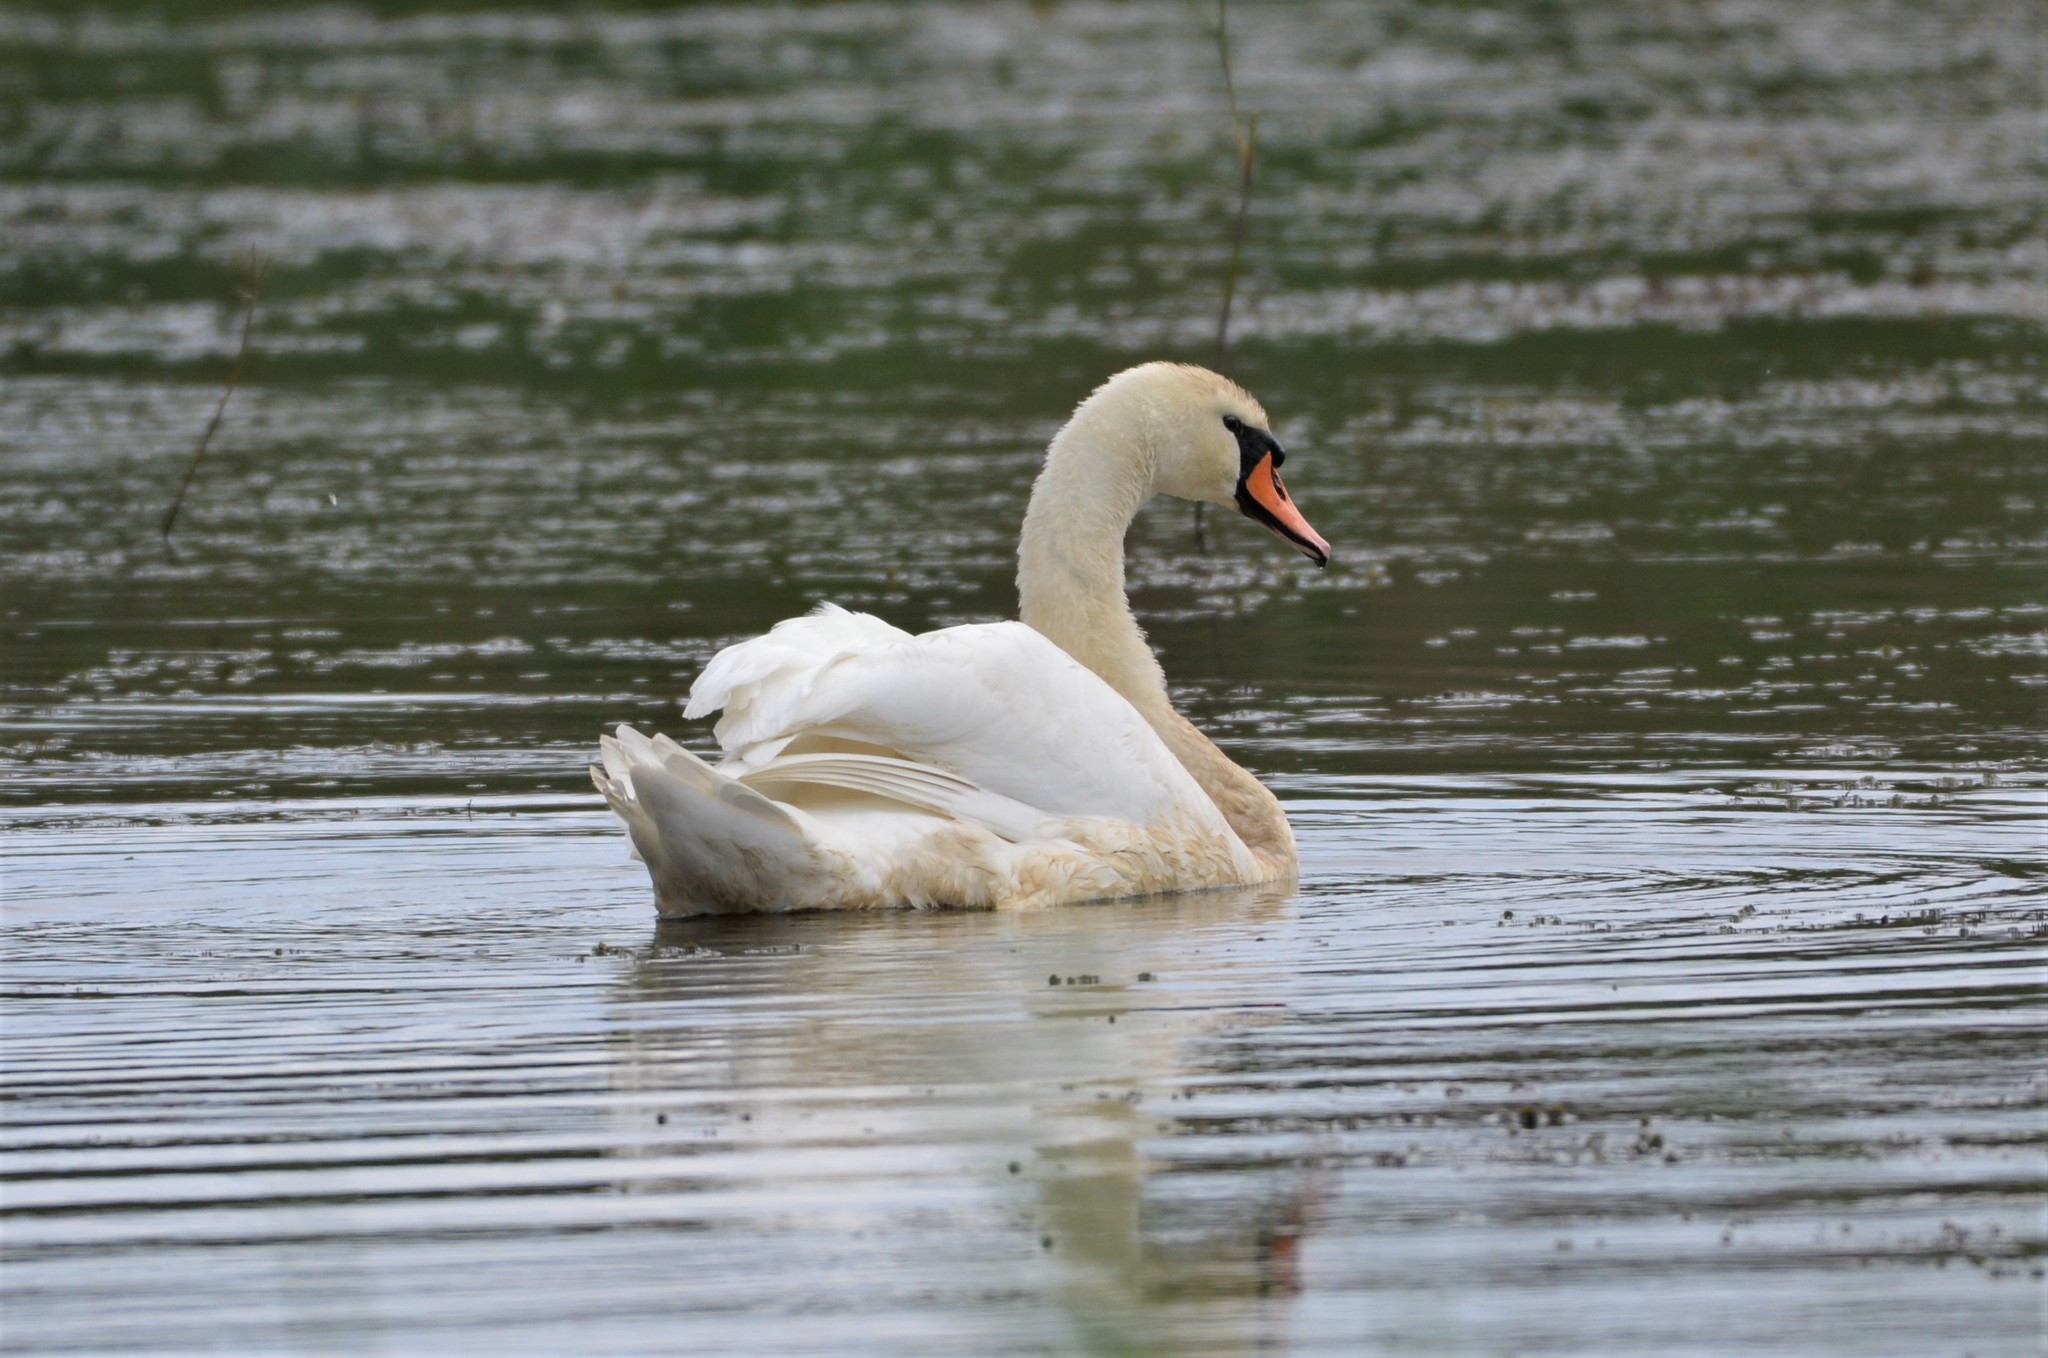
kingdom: Animalia
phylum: Chordata
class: Aves
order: Anseriformes
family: Anatidae
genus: Cygnus
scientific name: Cygnus olor
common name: Mute swan
